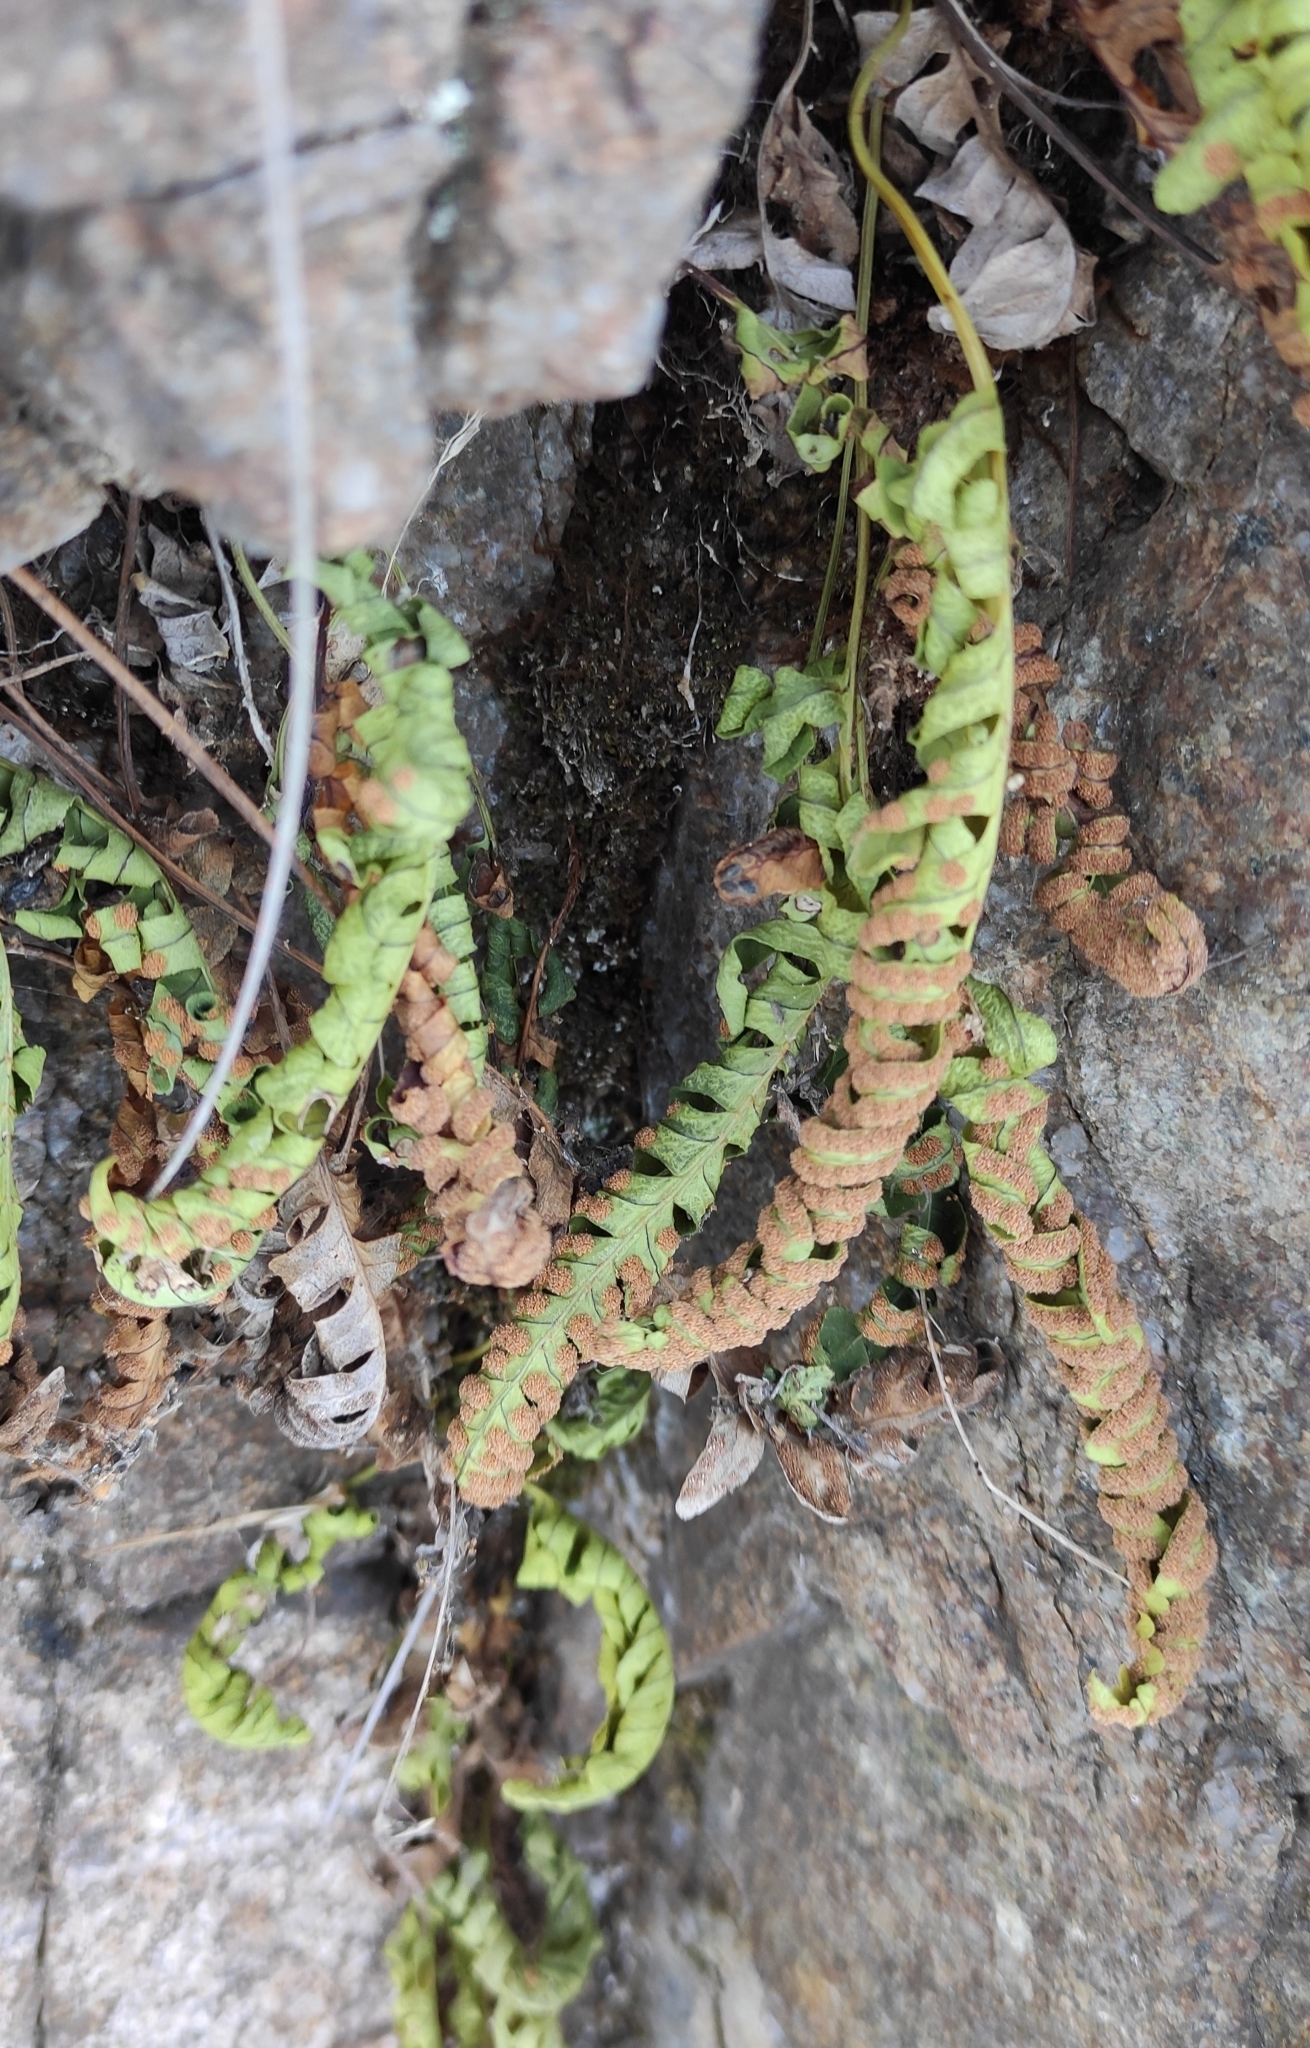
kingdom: Plantae
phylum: Tracheophyta
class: Polypodiopsida
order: Polypodiales
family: Polypodiaceae
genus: Polypodium
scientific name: Polypodium sibiricum
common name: Siberian polypody
